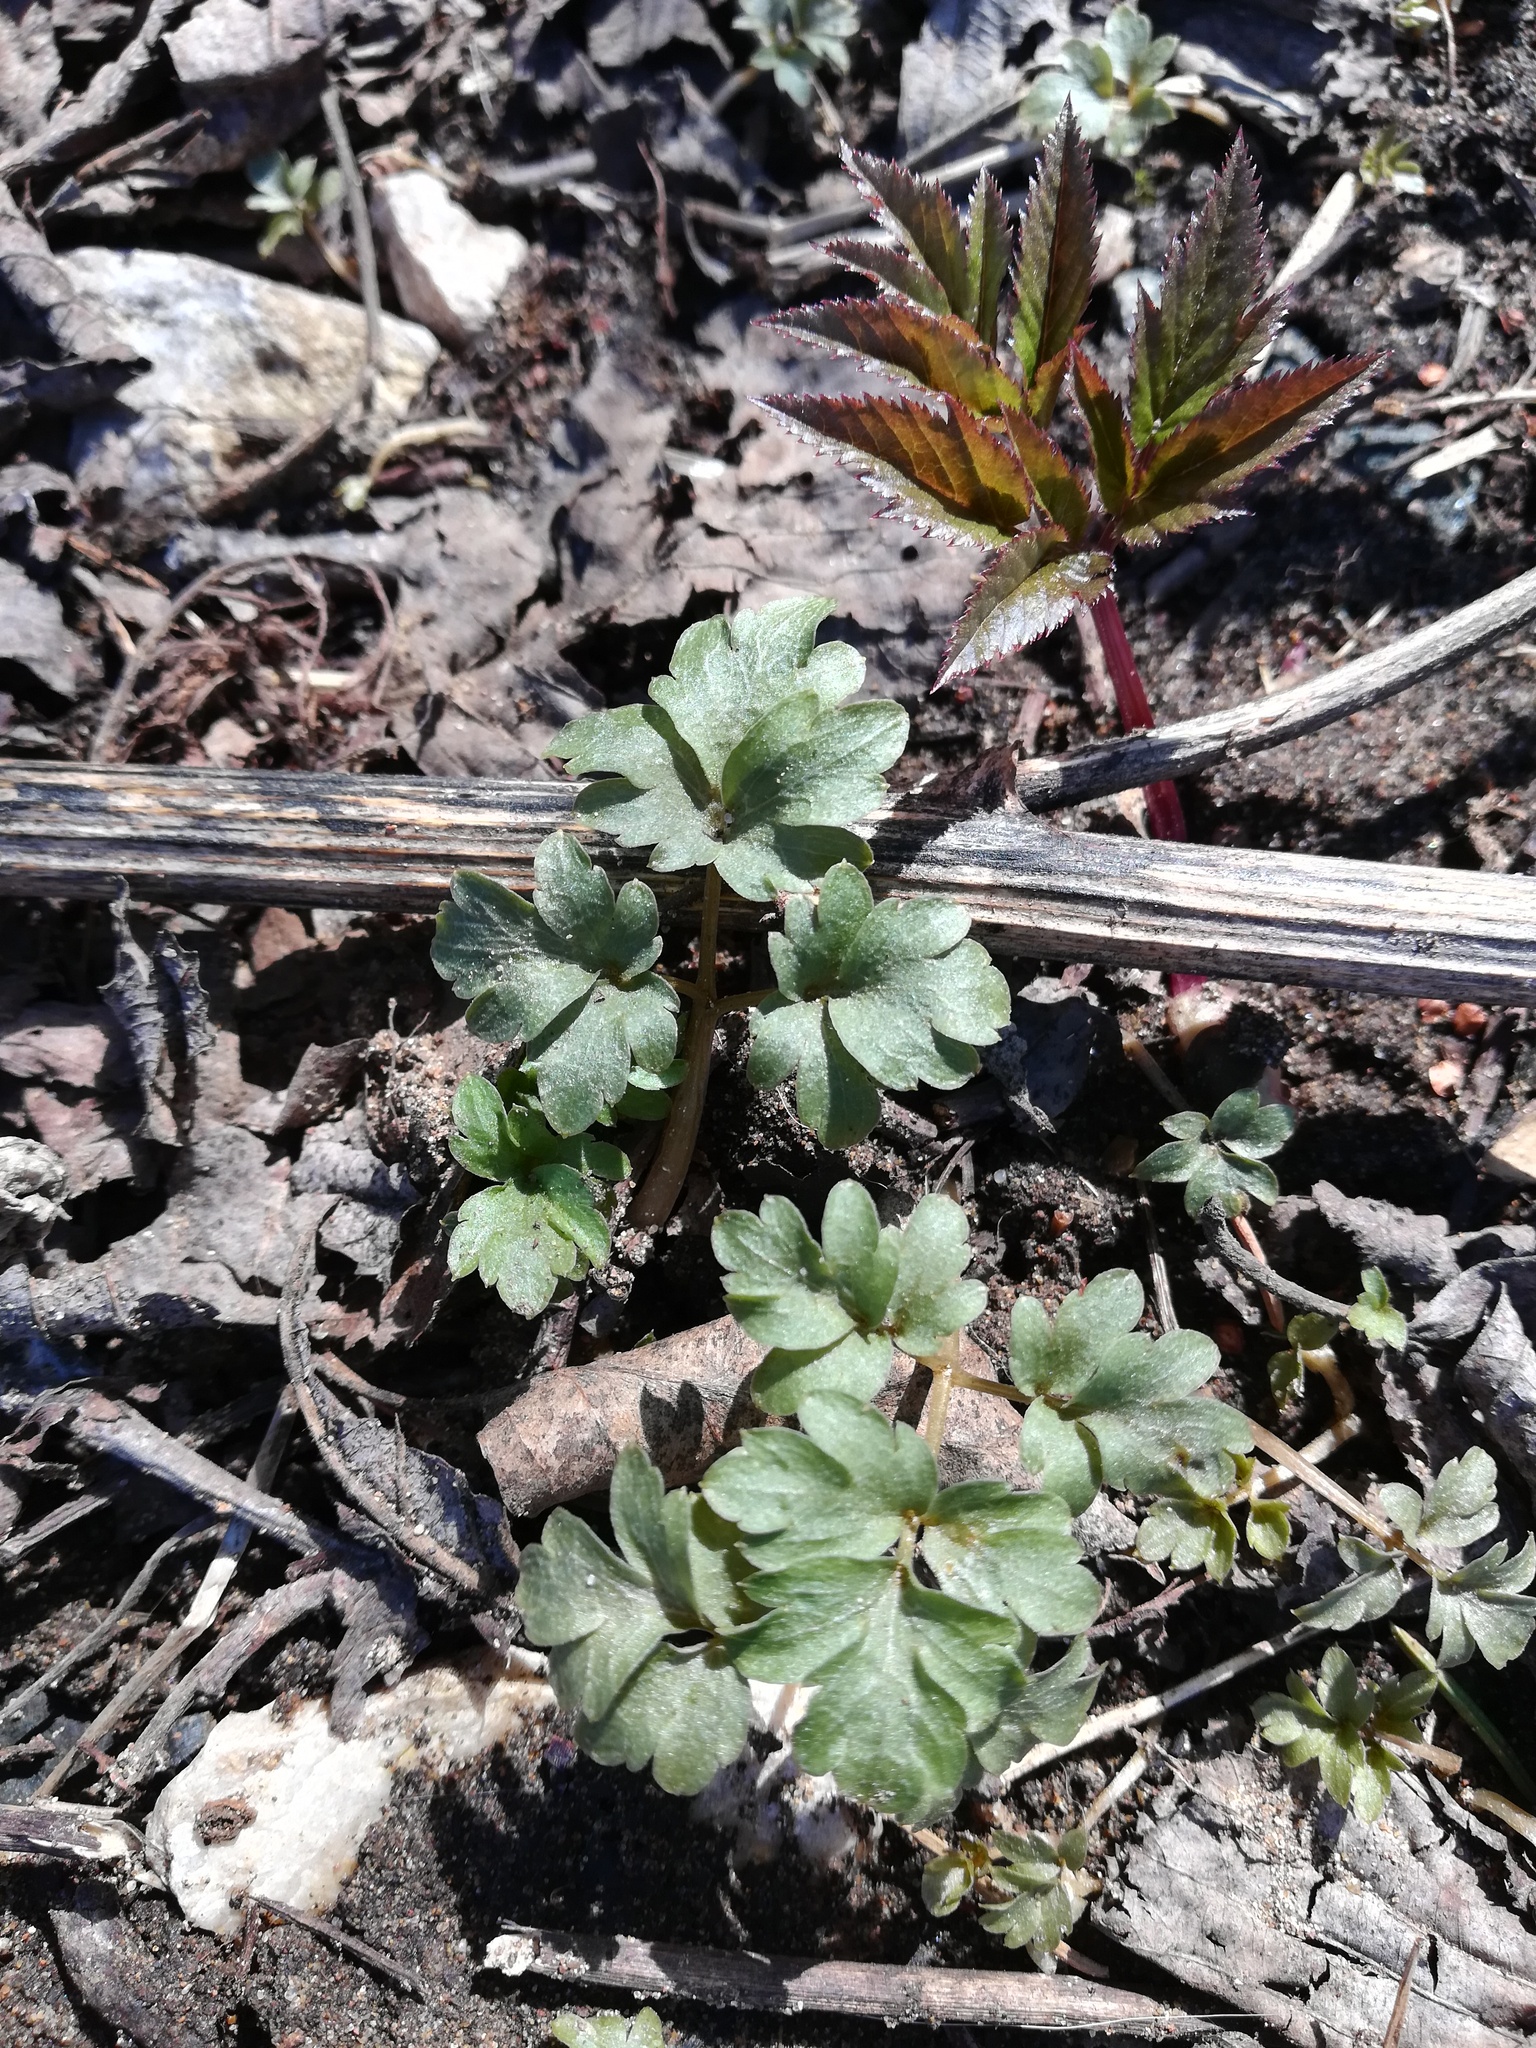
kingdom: Plantae
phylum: Tracheophyta
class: Magnoliopsida
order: Dipsacales
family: Viburnaceae
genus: Adoxa
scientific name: Adoxa moschatellina
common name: Moschatel
